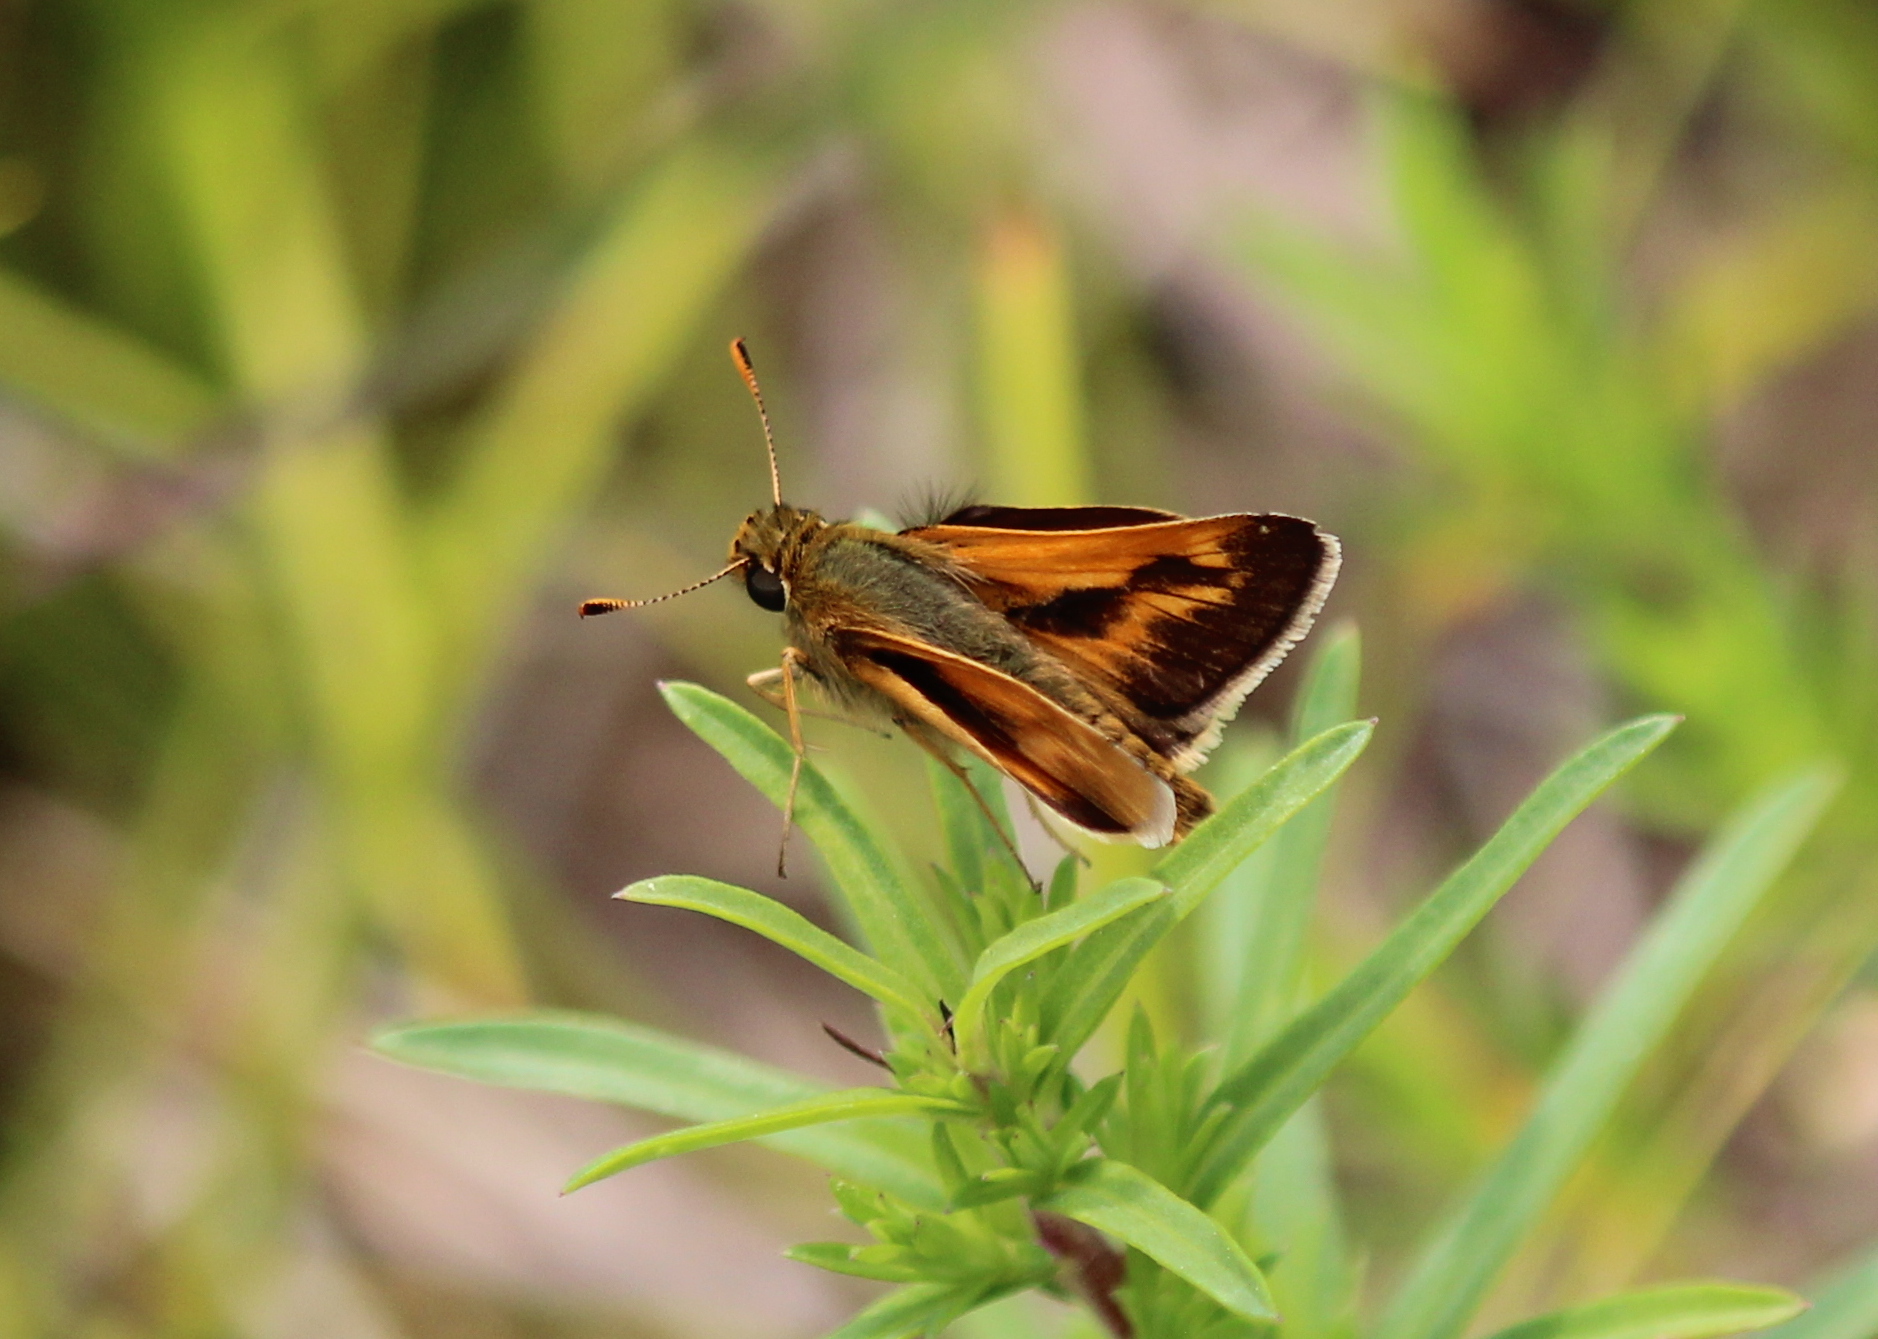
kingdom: Animalia
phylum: Arthropoda
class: Insecta
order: Lepidoptera
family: Hesperiidae
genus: Polites
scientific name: Polites mystic
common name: Long dash
